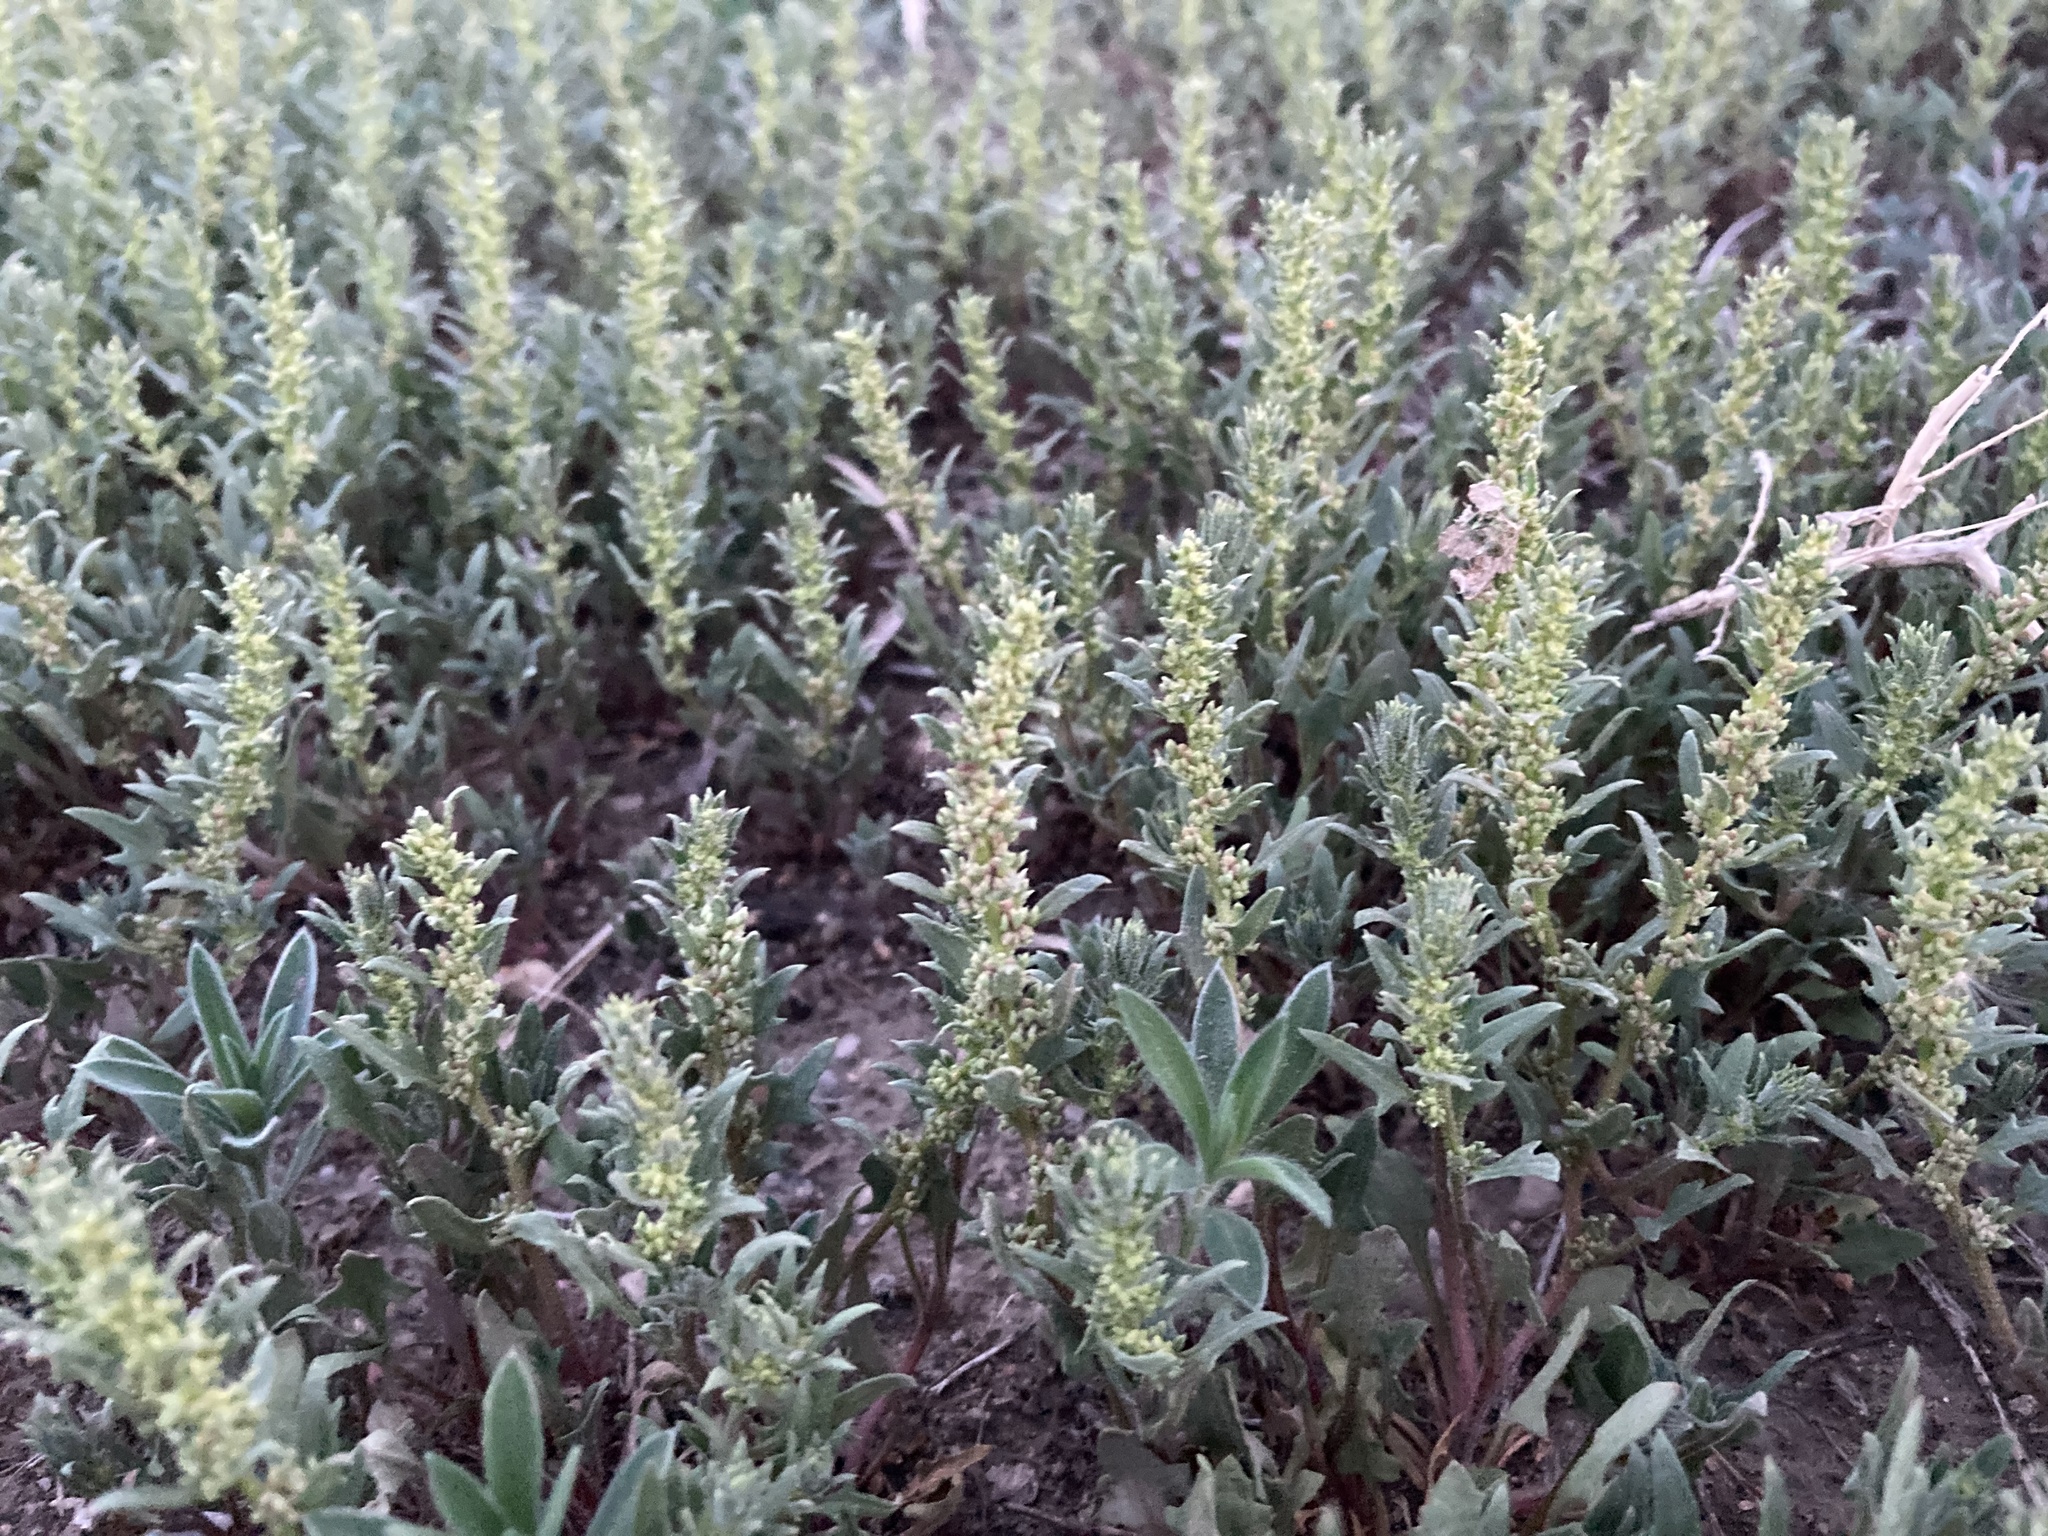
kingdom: Plantae
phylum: Tracheophyta
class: Magnoliopsida
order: Caryophyllales
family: Amaranthaceae
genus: Blitum
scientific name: Blitum nuttallianum
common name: Poverty-weed
